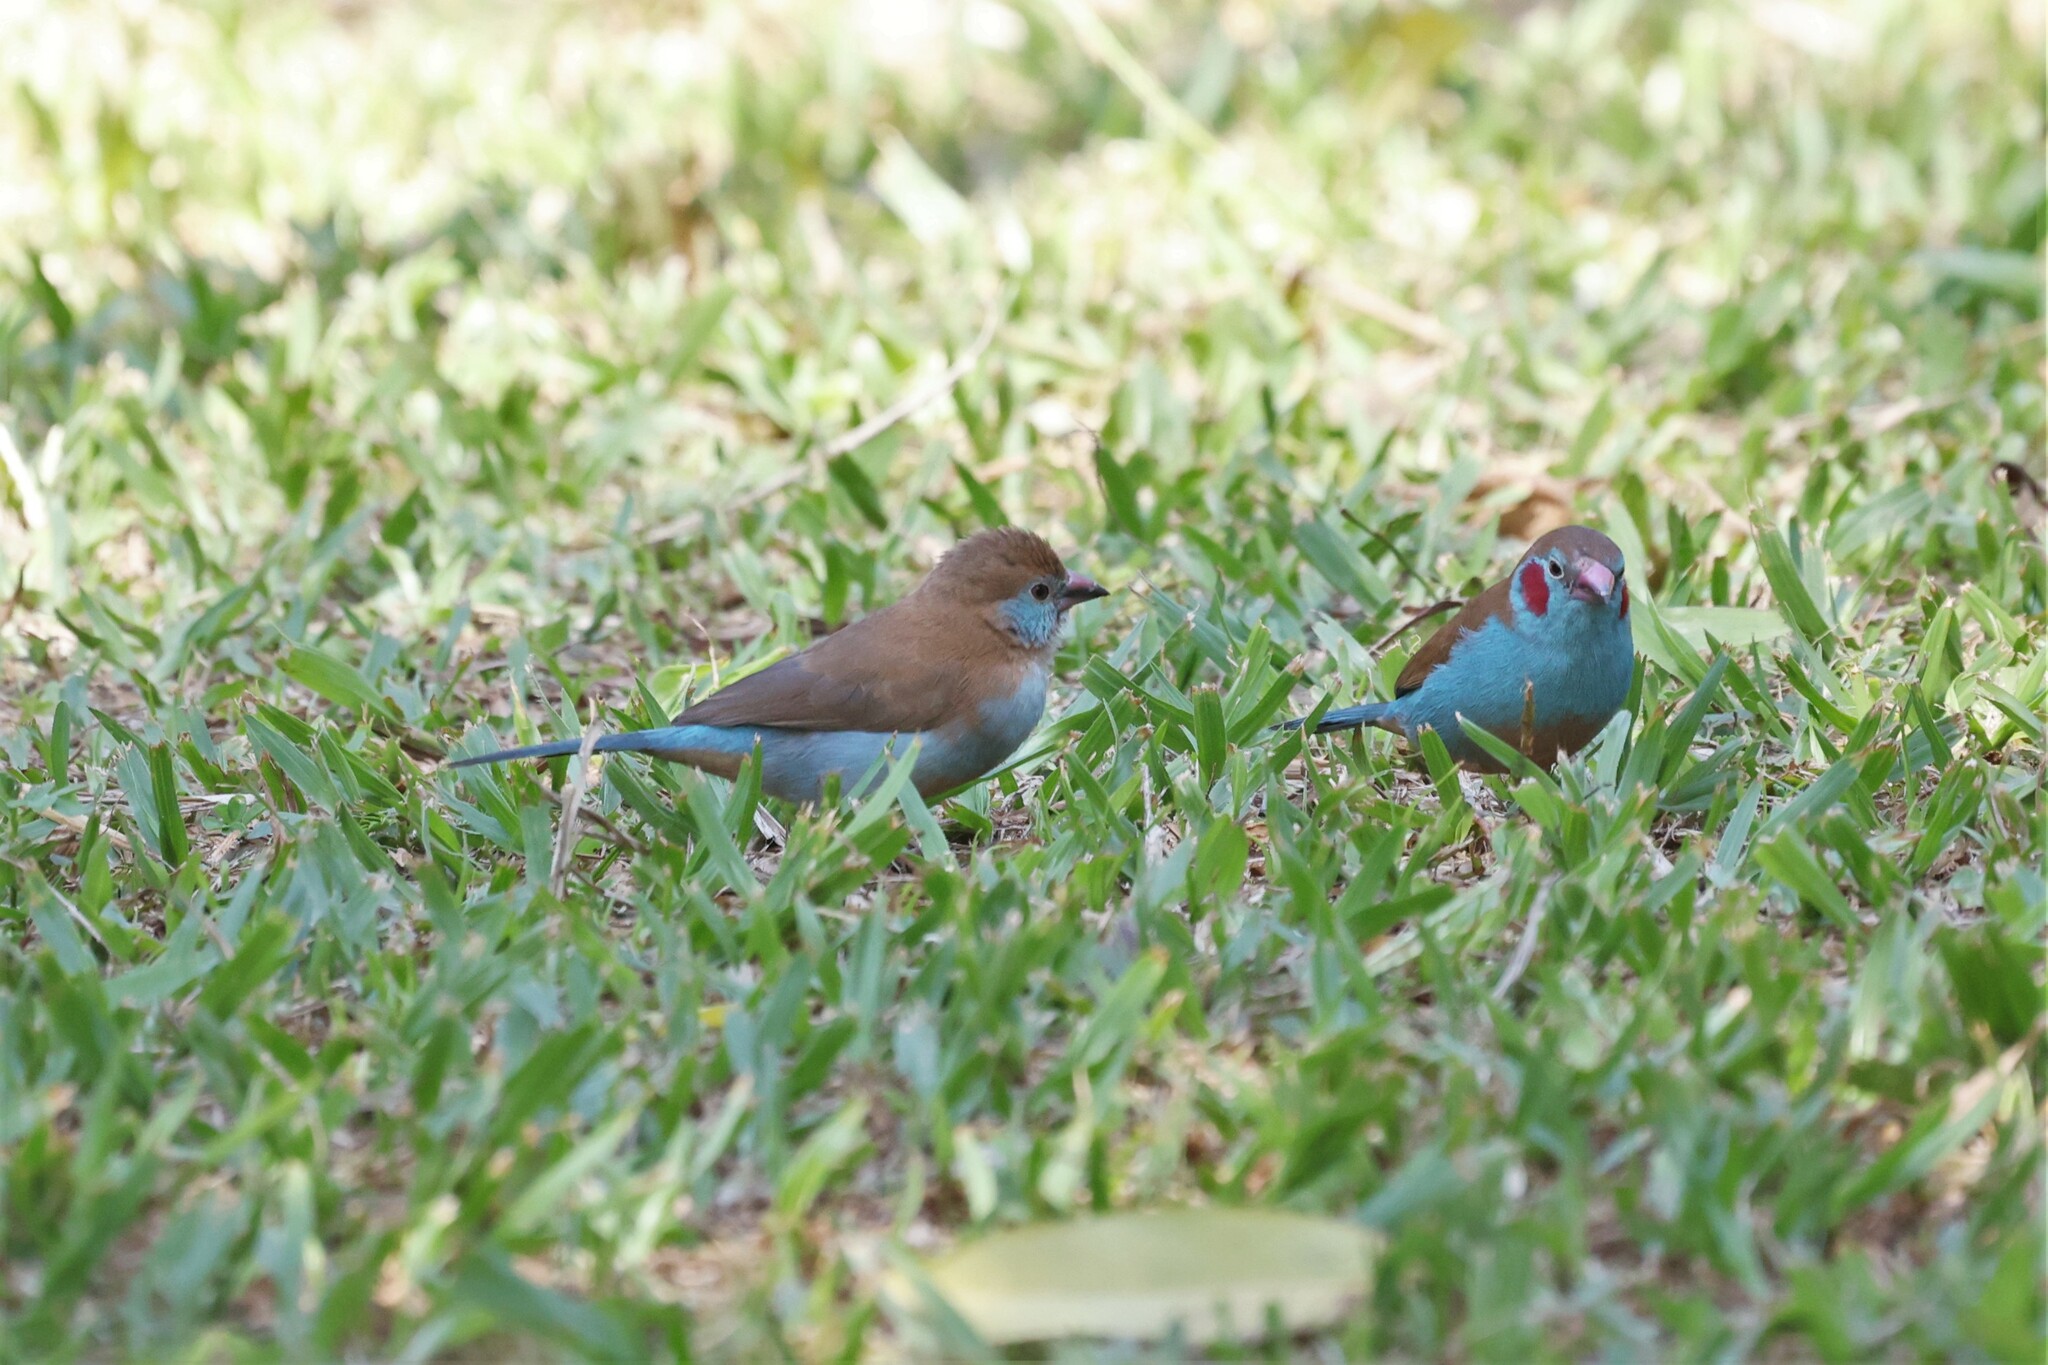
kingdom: Animalia
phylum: Chordata
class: Aves
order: Passeriformes
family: Estrildidae
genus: Uraeginthus
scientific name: Uraeginthus bengalus
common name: Red-cheeked cordon-bleu
